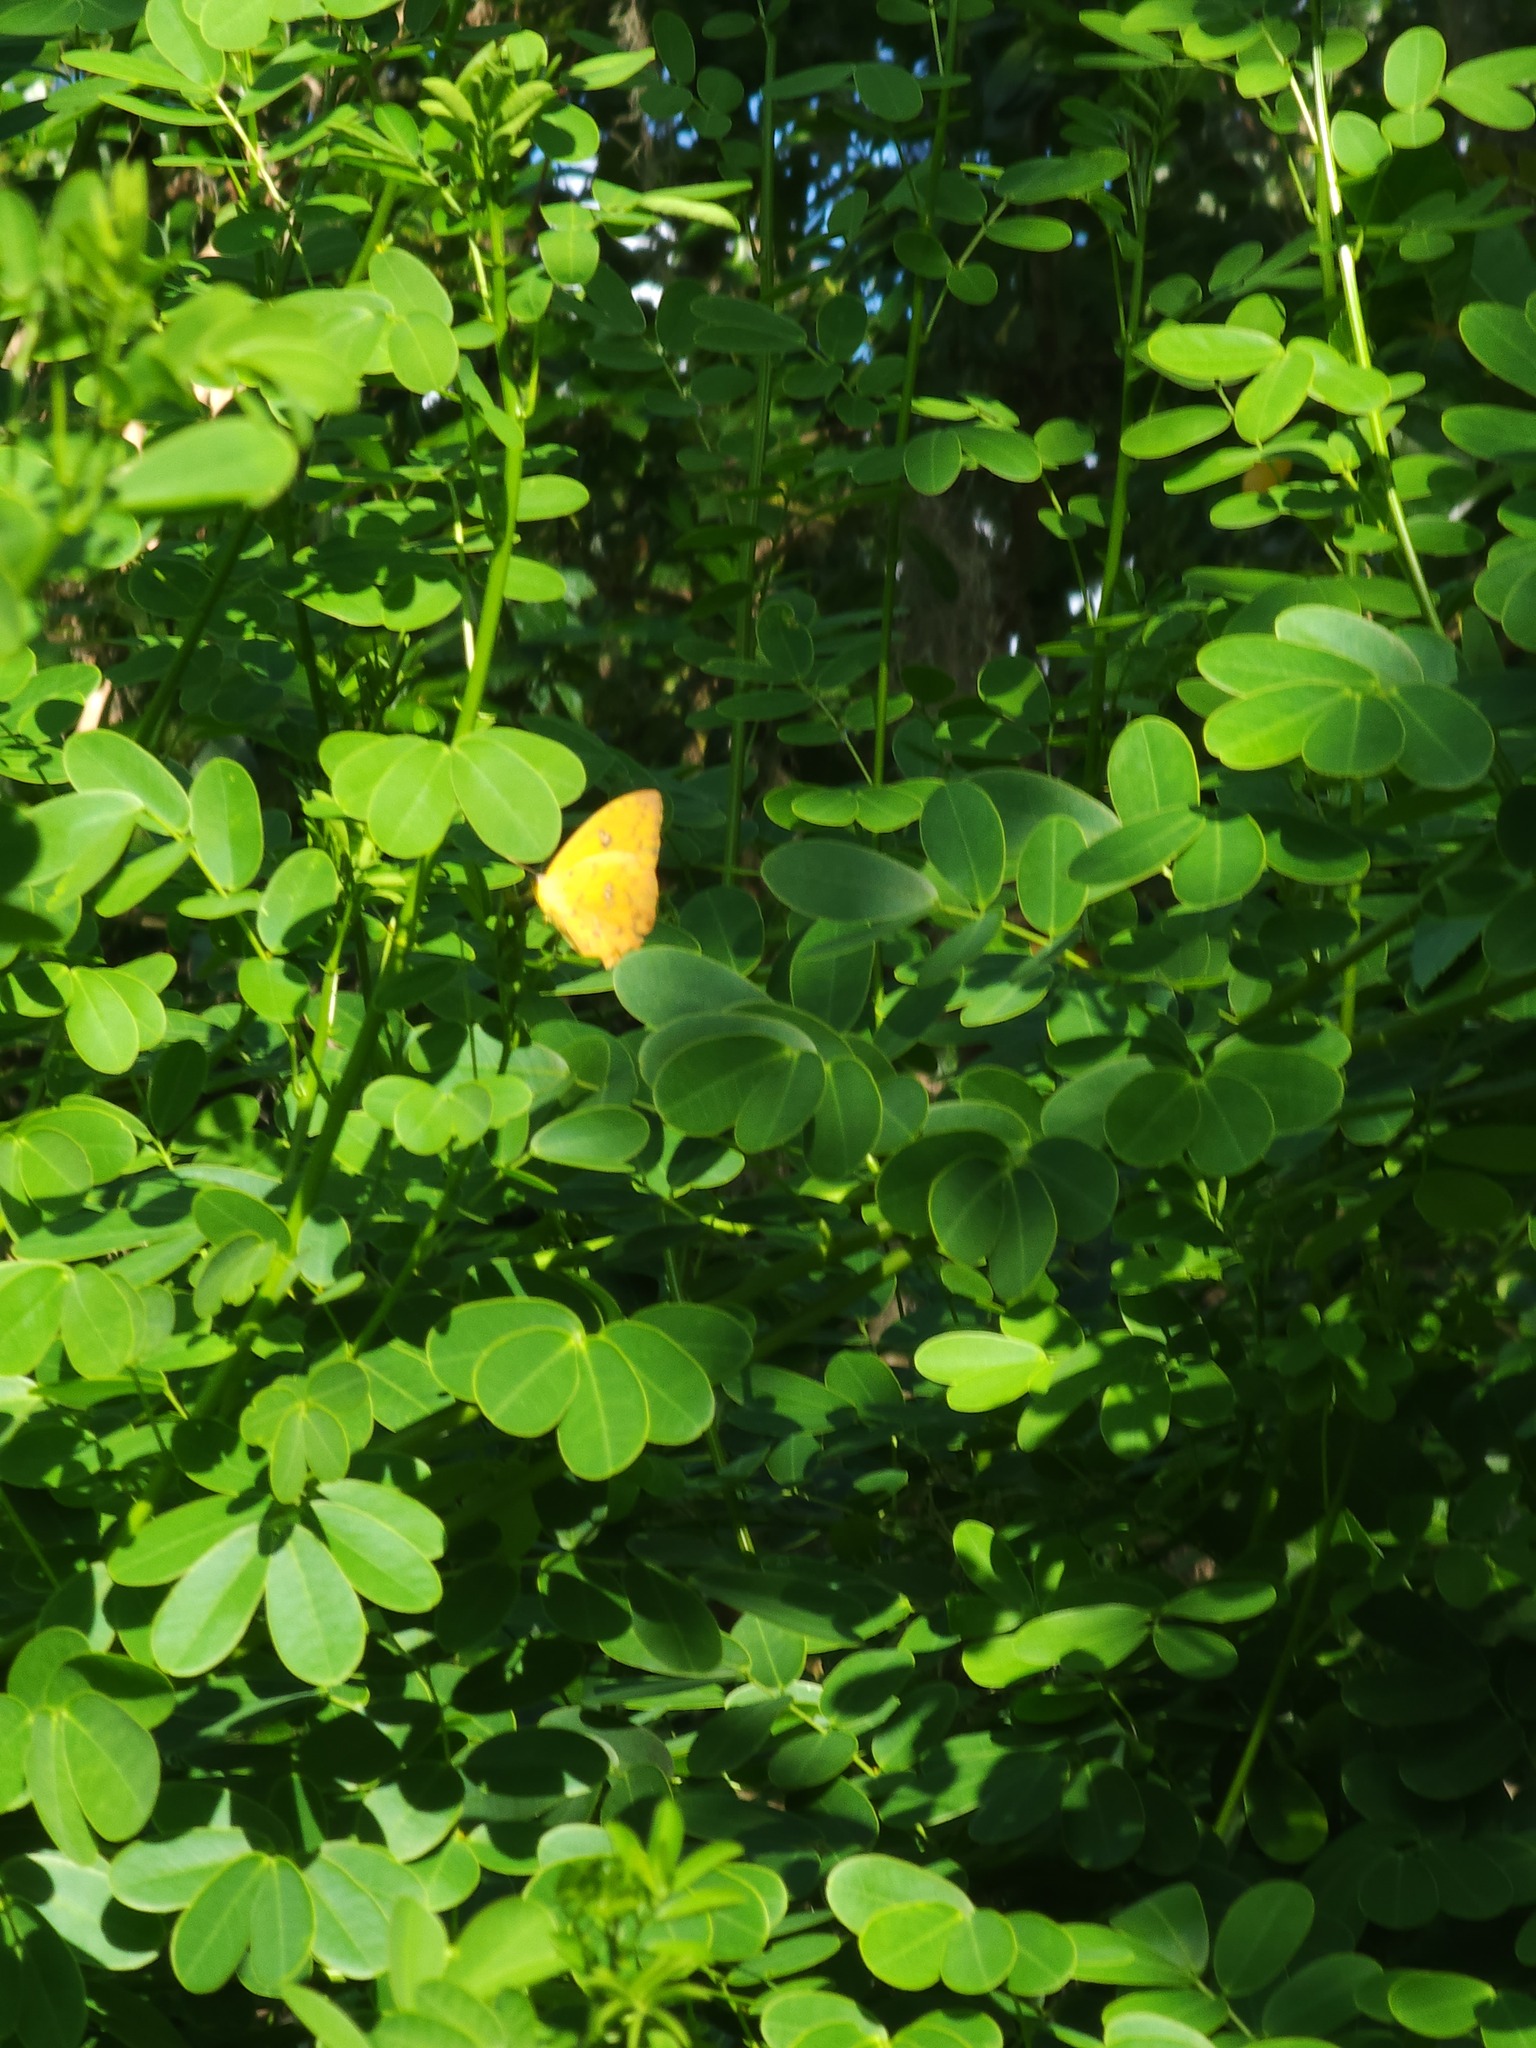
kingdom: Animalia
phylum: Arthropoda
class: Insecta
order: Lepidoptera
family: Pieridae
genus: Phoebis
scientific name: Phoebis philea
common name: Orange-barred giant sulphur
